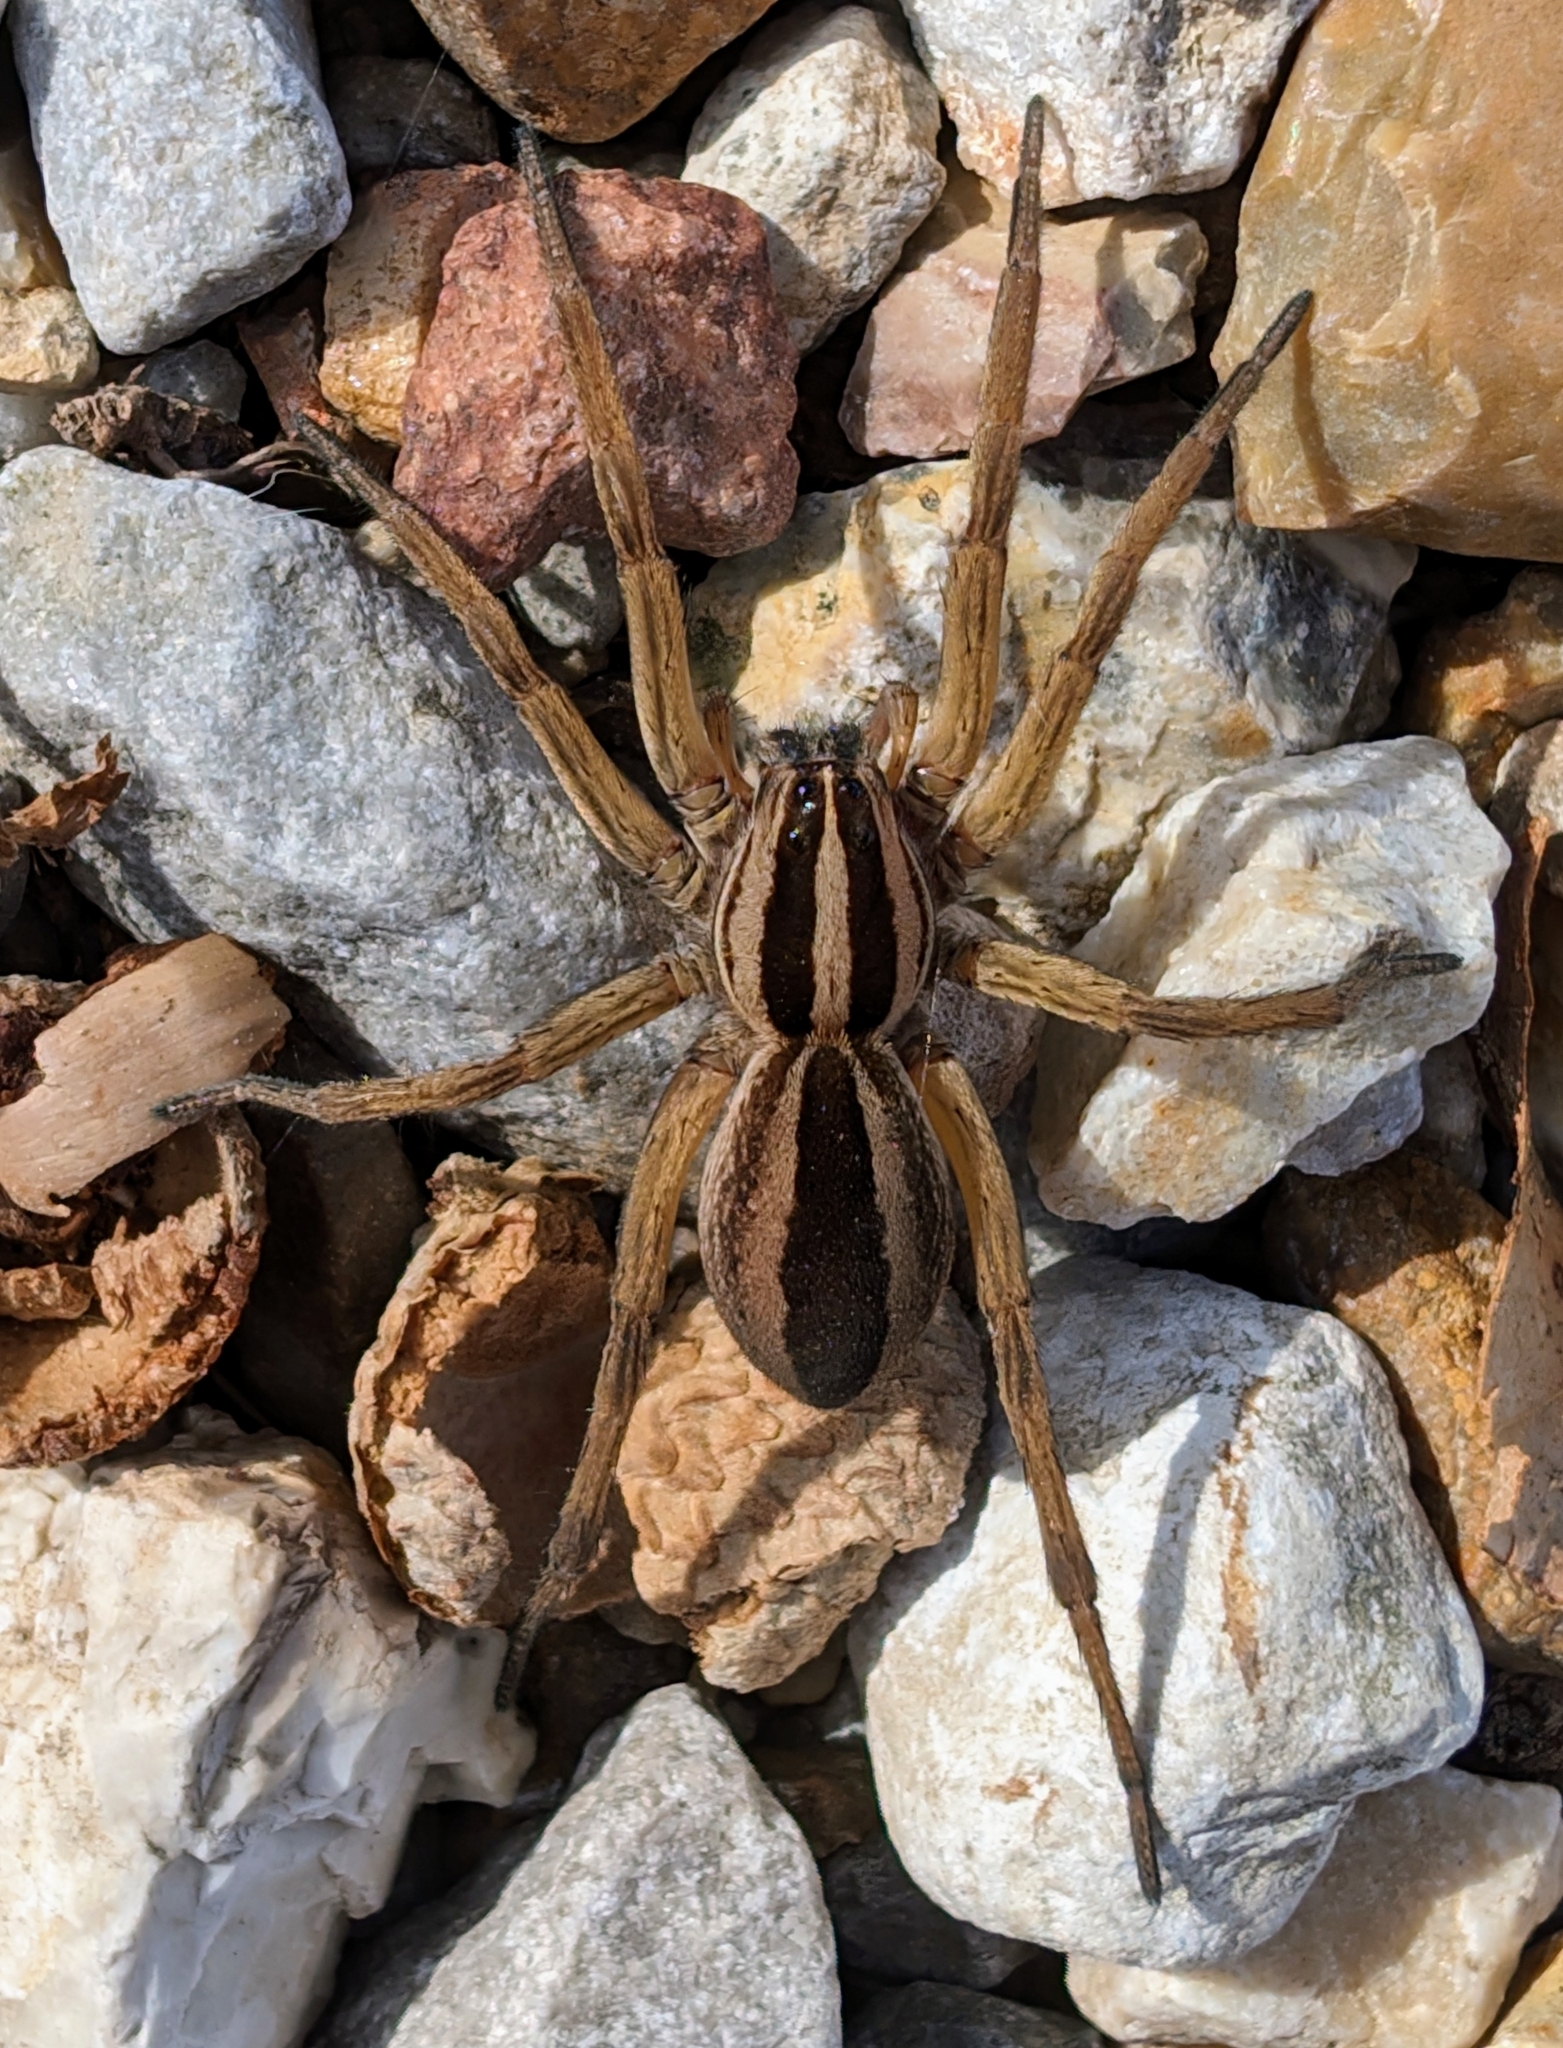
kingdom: Animalia
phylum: Arthropoda
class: Arachnida
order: Araneae
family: Lycosidae
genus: Rabidosa
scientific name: Rabidosa punctulata
